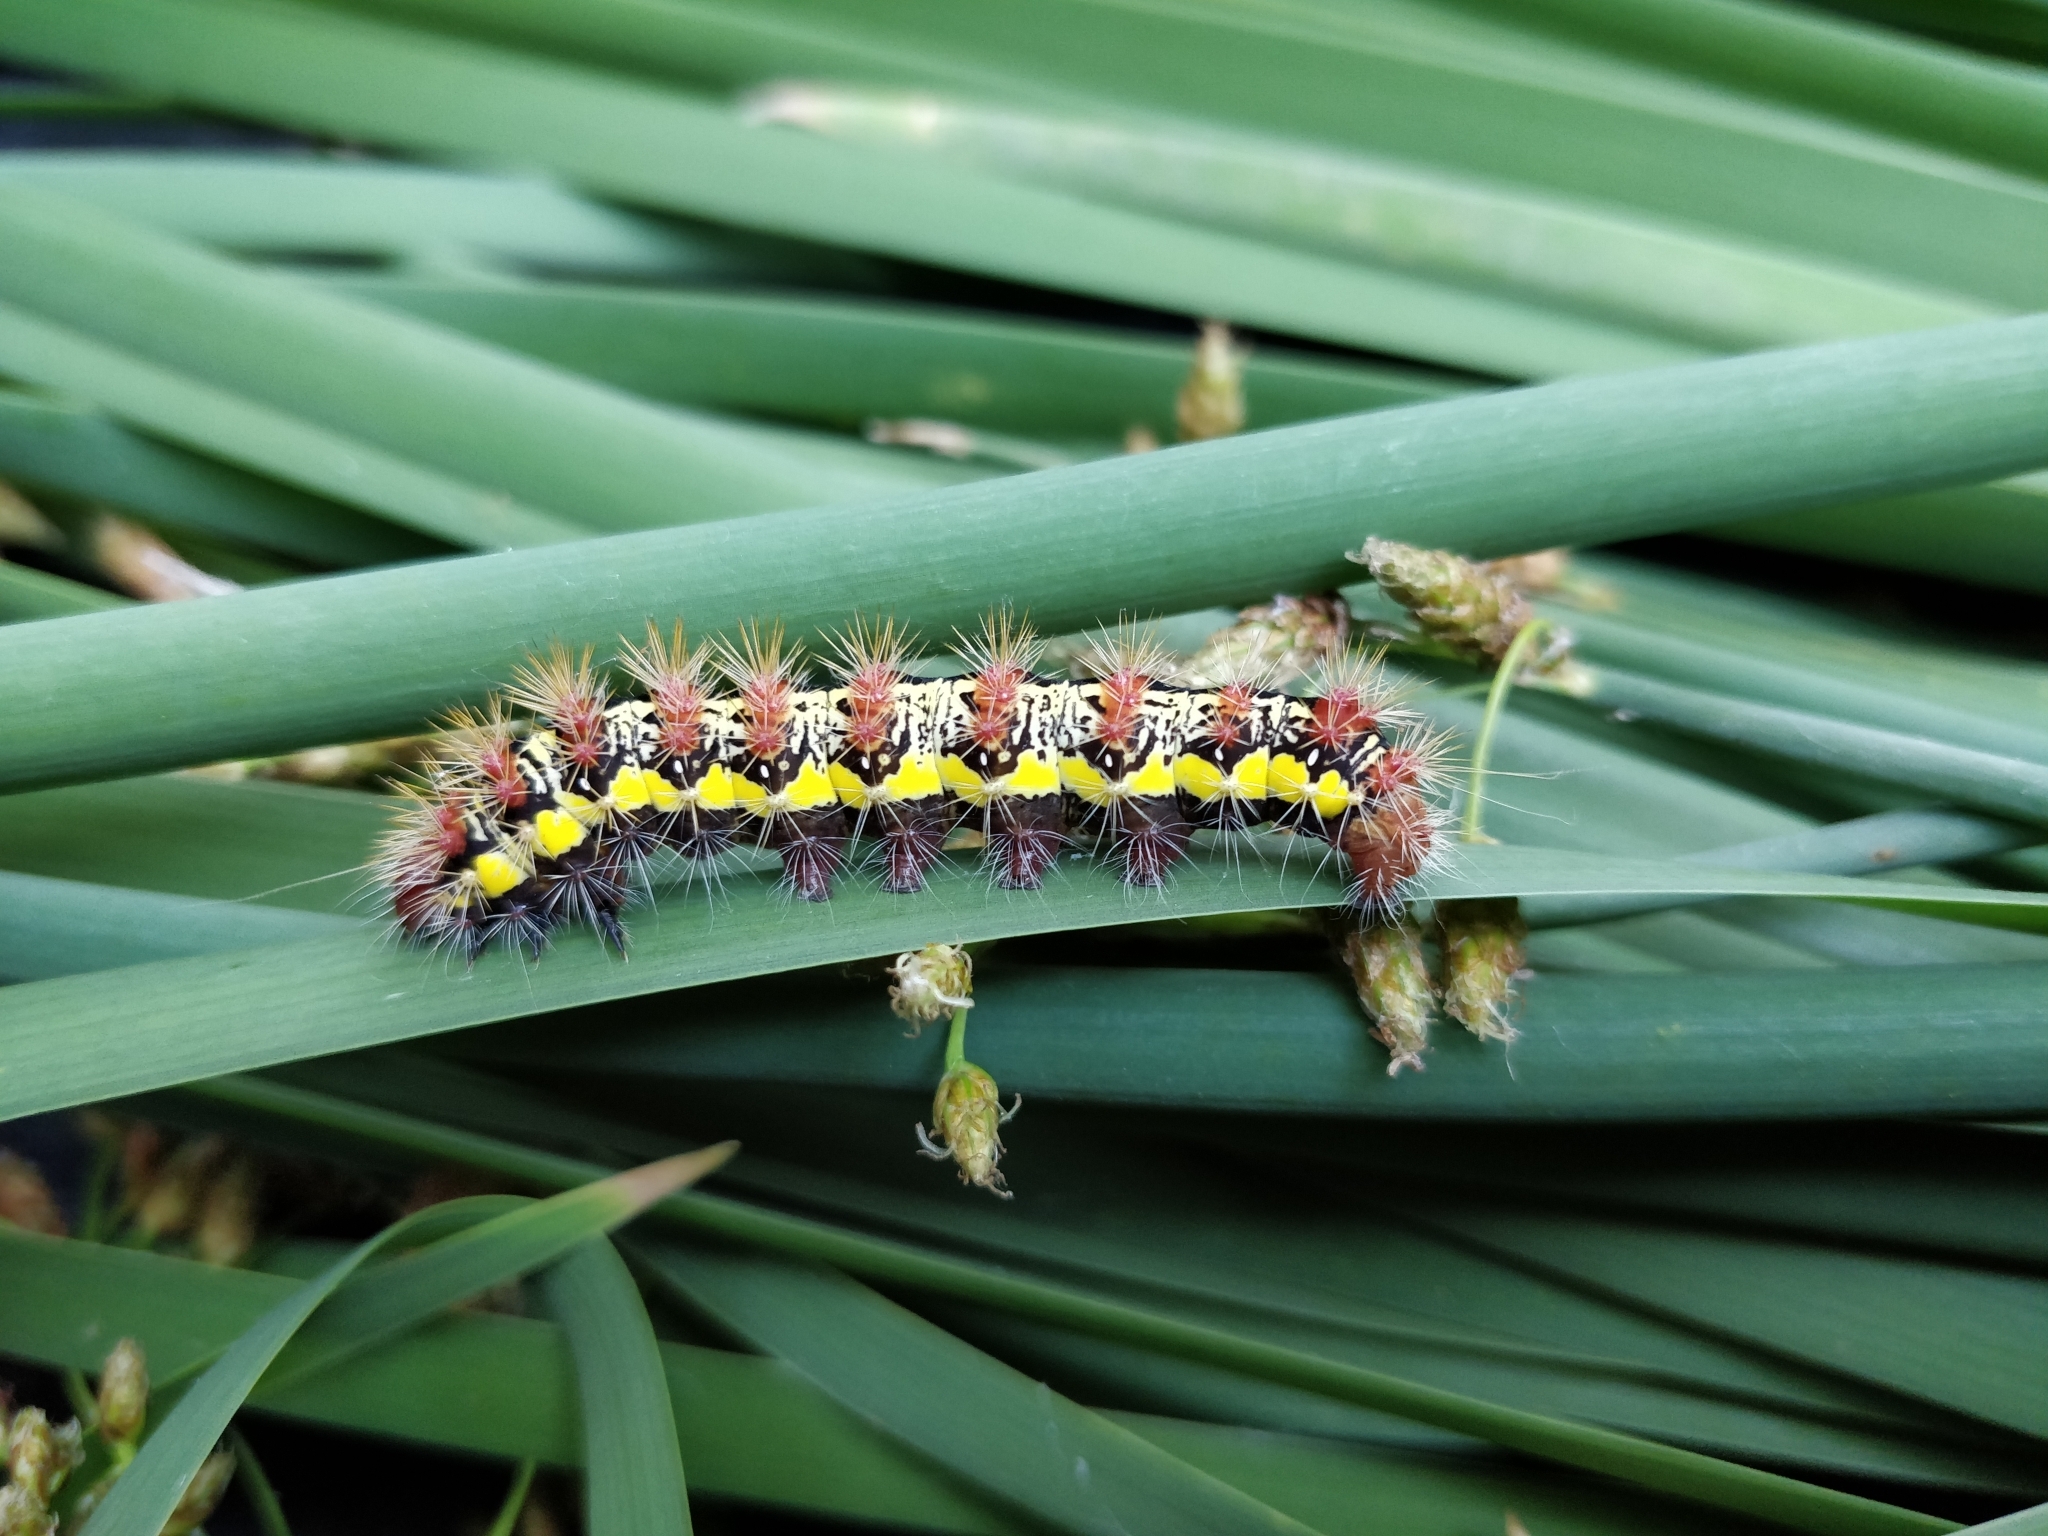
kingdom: Animalia
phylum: Arthropoda
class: Insecta
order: Lepidoptera
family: Noctuidae
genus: Acronicta
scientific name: Acronicta oblinita
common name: Smeared dagger
